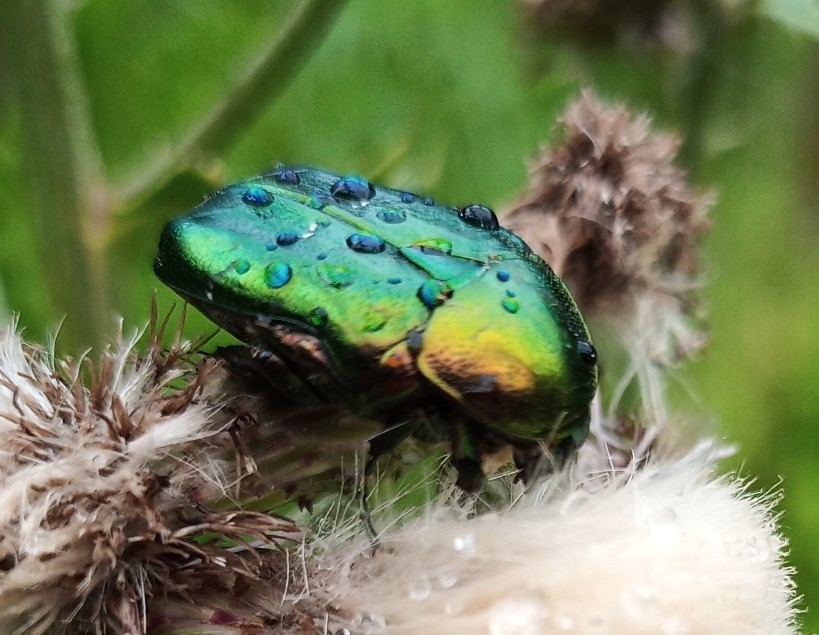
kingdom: Animalia
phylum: Arthropoda
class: Insecta
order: Coleoptera
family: Scarabaeidae
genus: Cetonia
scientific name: Cetonia aurata
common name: Rose chafer
